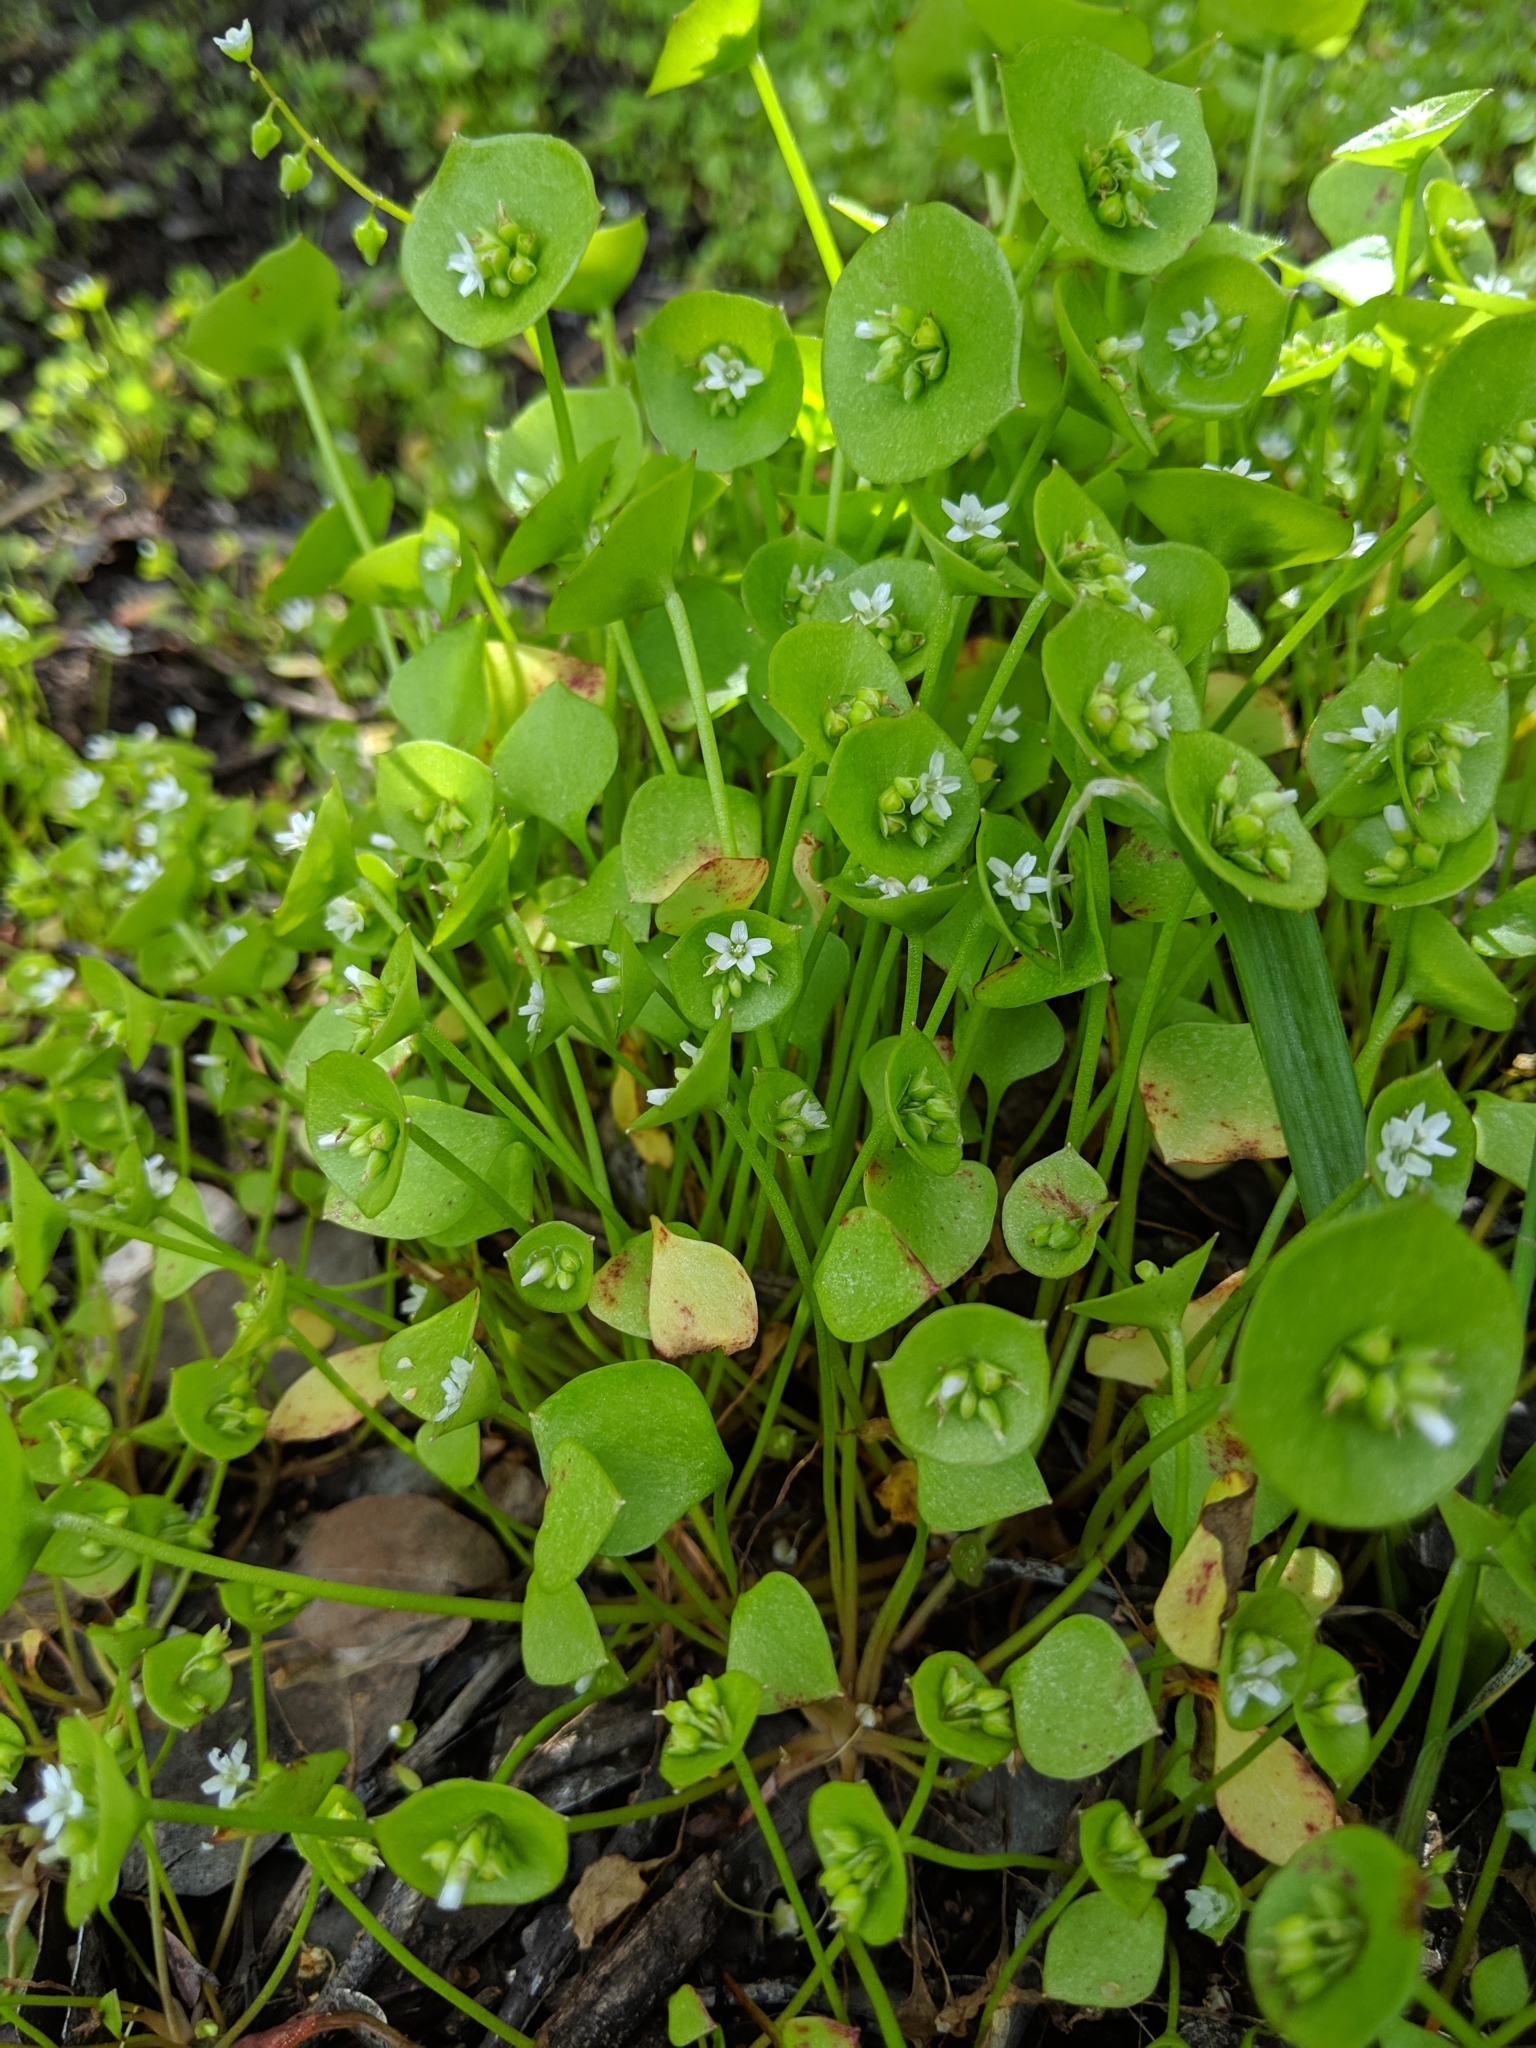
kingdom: Plantae
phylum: Tracheophyta
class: Magnoliopsida
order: Caryophyllales
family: Montiaceae
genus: Claytonia
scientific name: Claytonia perfoliata
